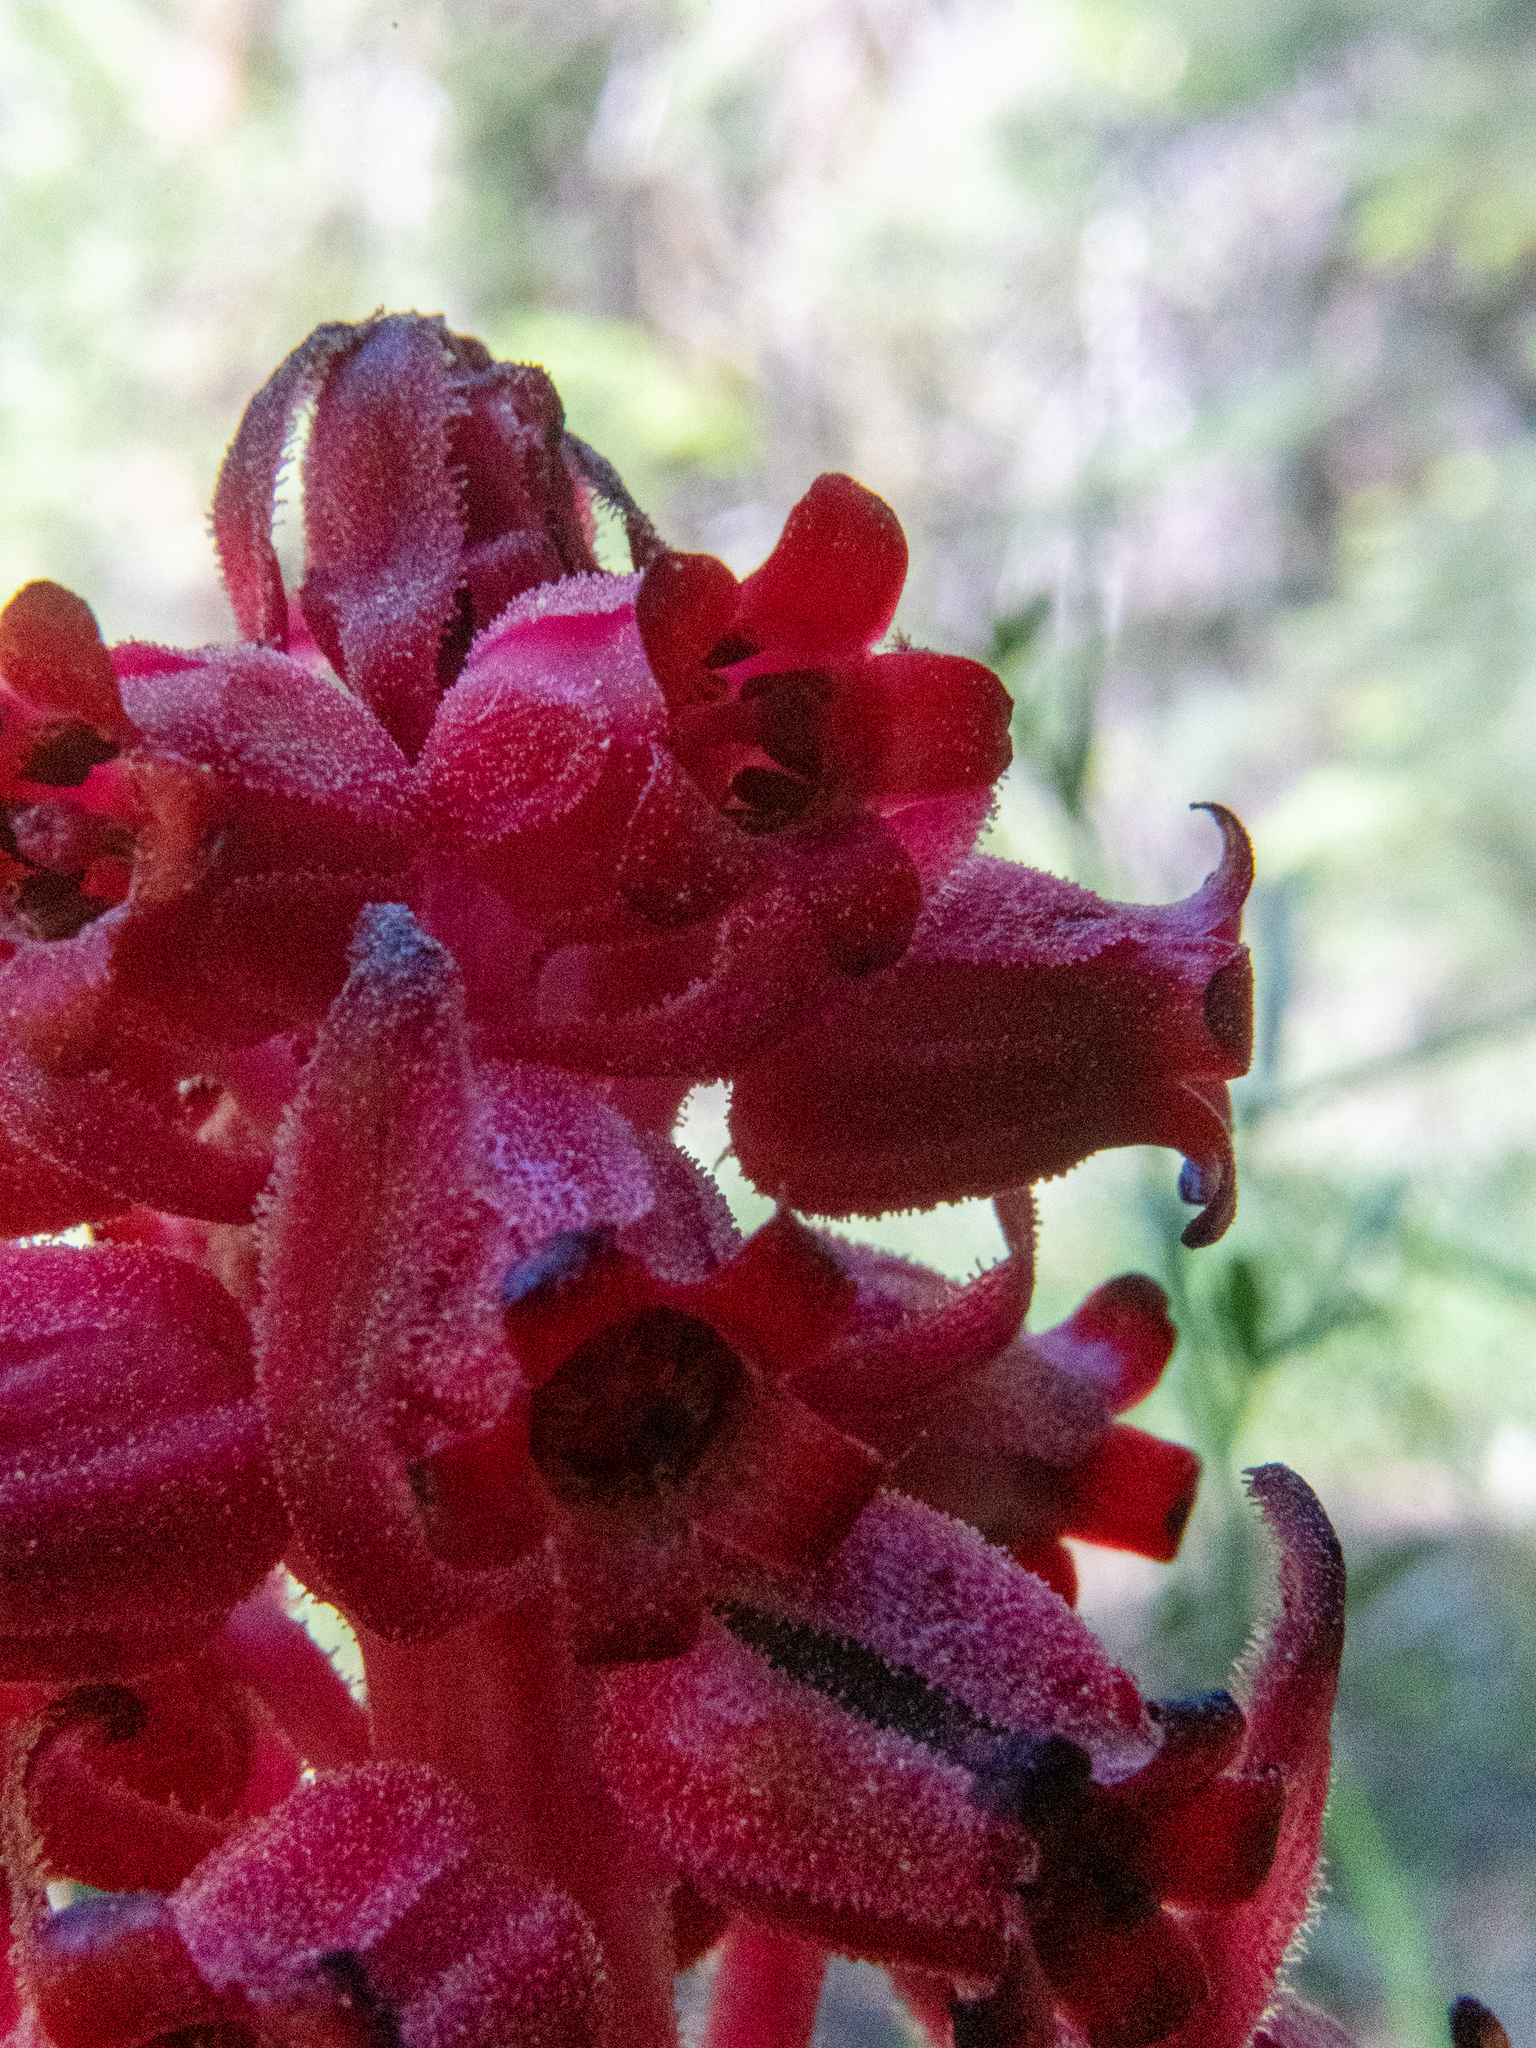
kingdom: Plantae
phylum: Tracheophyta
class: Magnoliopsida
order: Ericales
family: Ericaceae
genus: Sarcodes
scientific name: Sarcodes sanguinea
